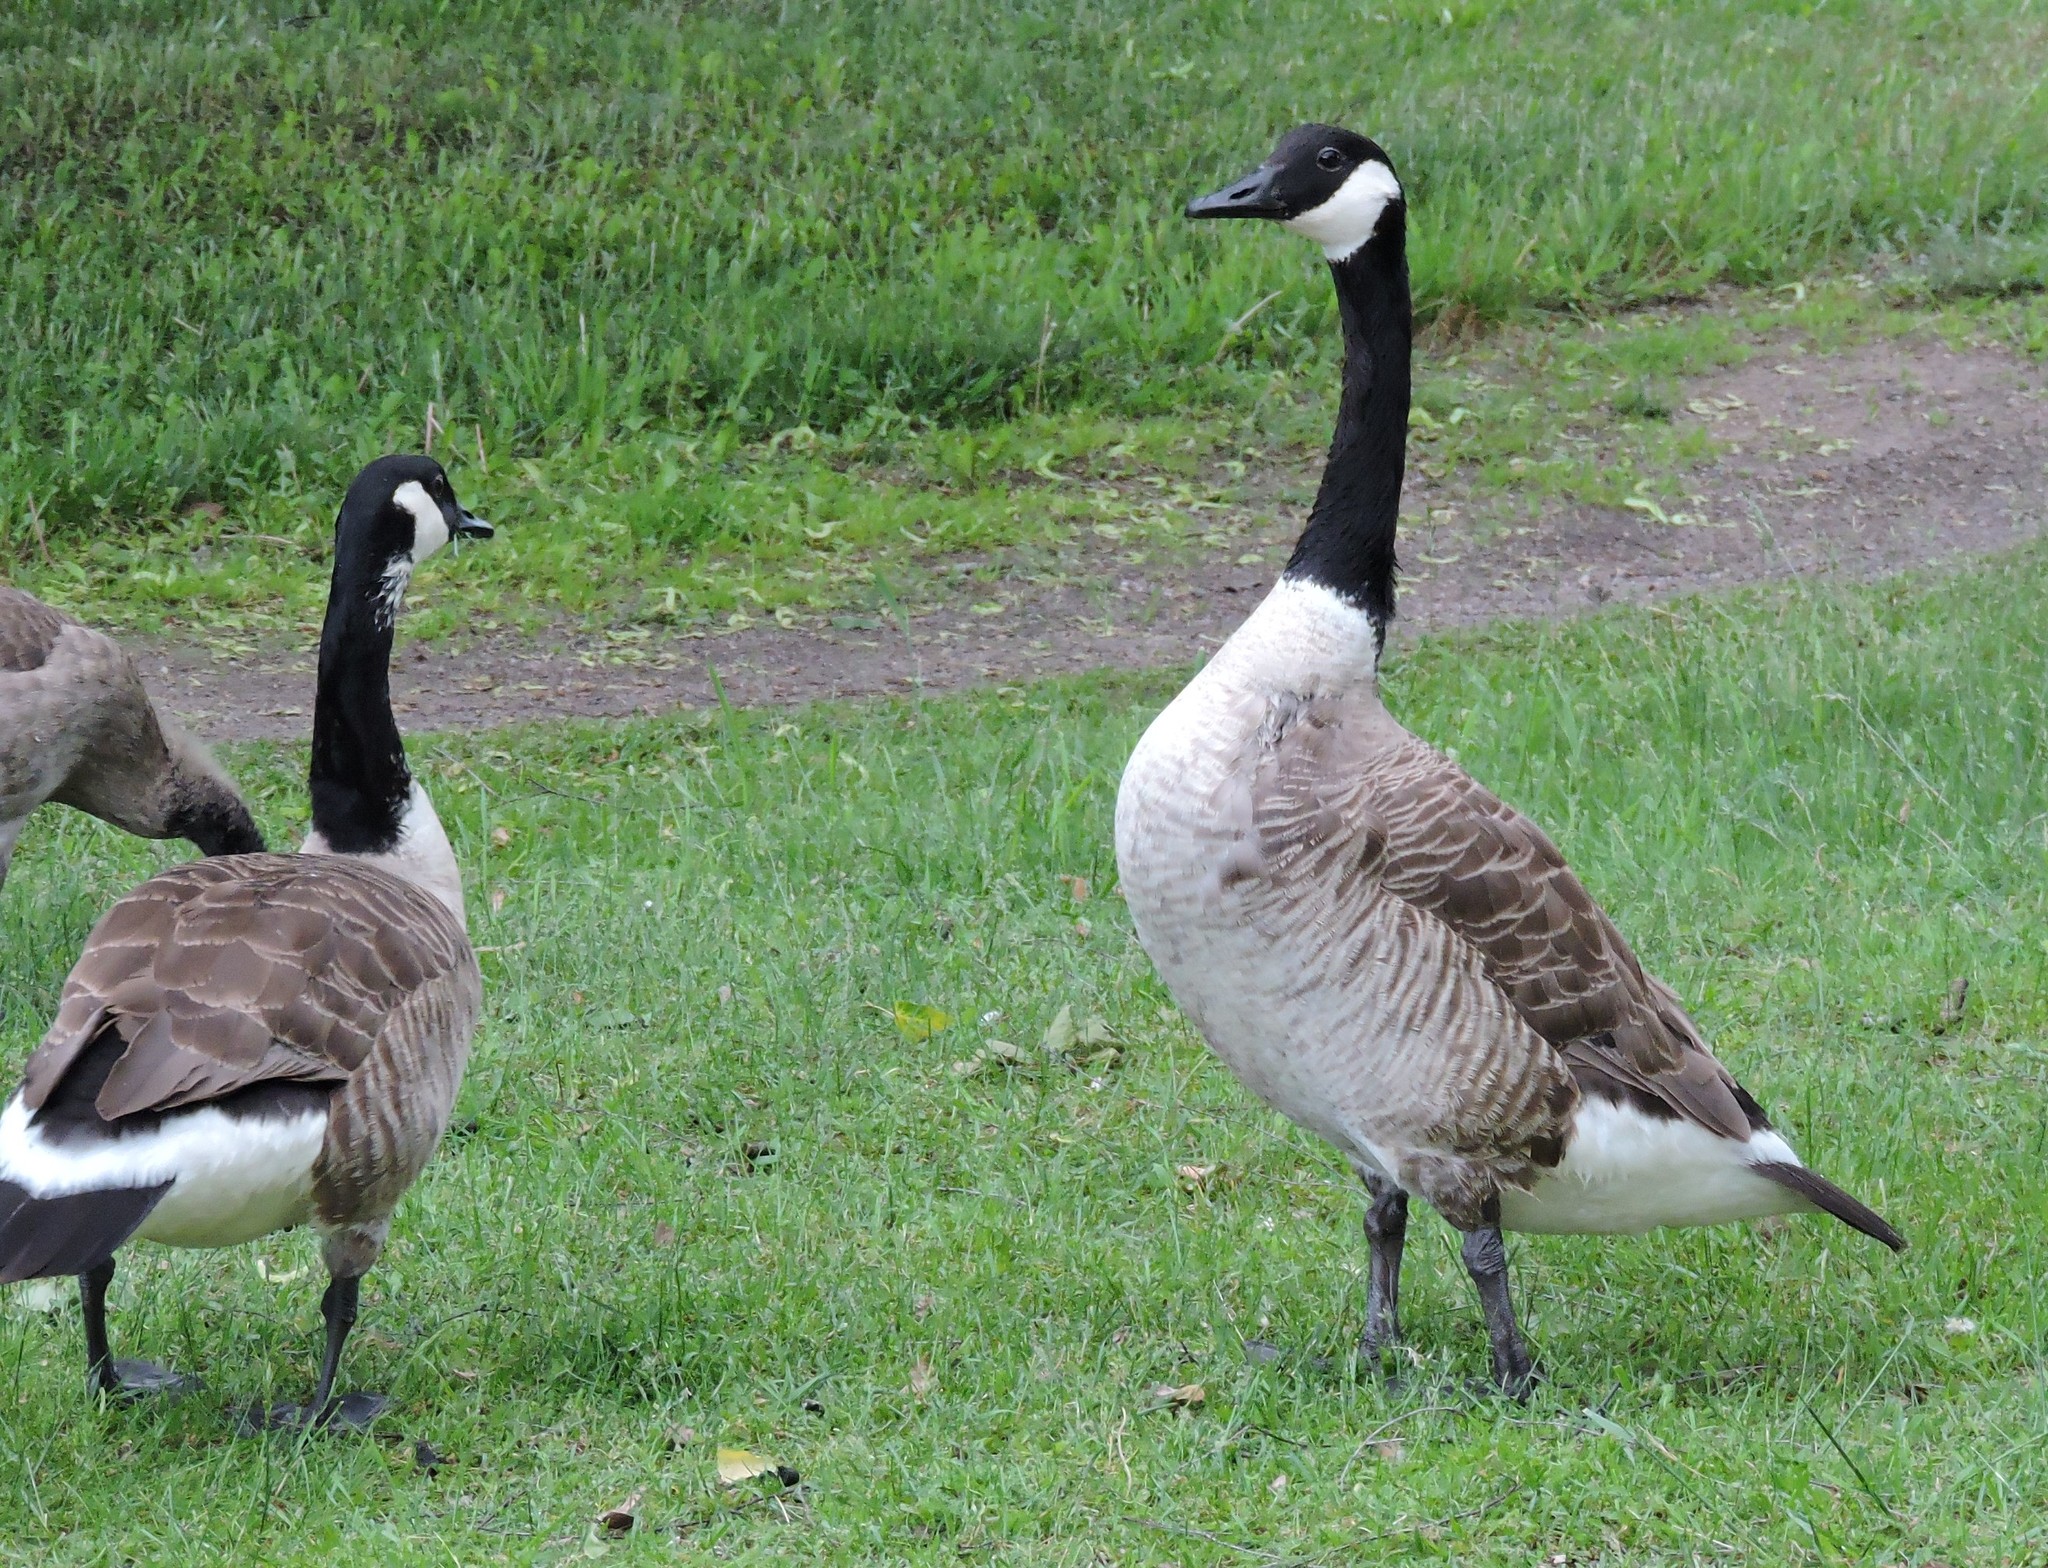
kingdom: Animalia
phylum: Chordata
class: Aves
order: Anseriformes
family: Anatidae
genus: Branta
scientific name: Branta canadensis
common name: Canada goose
